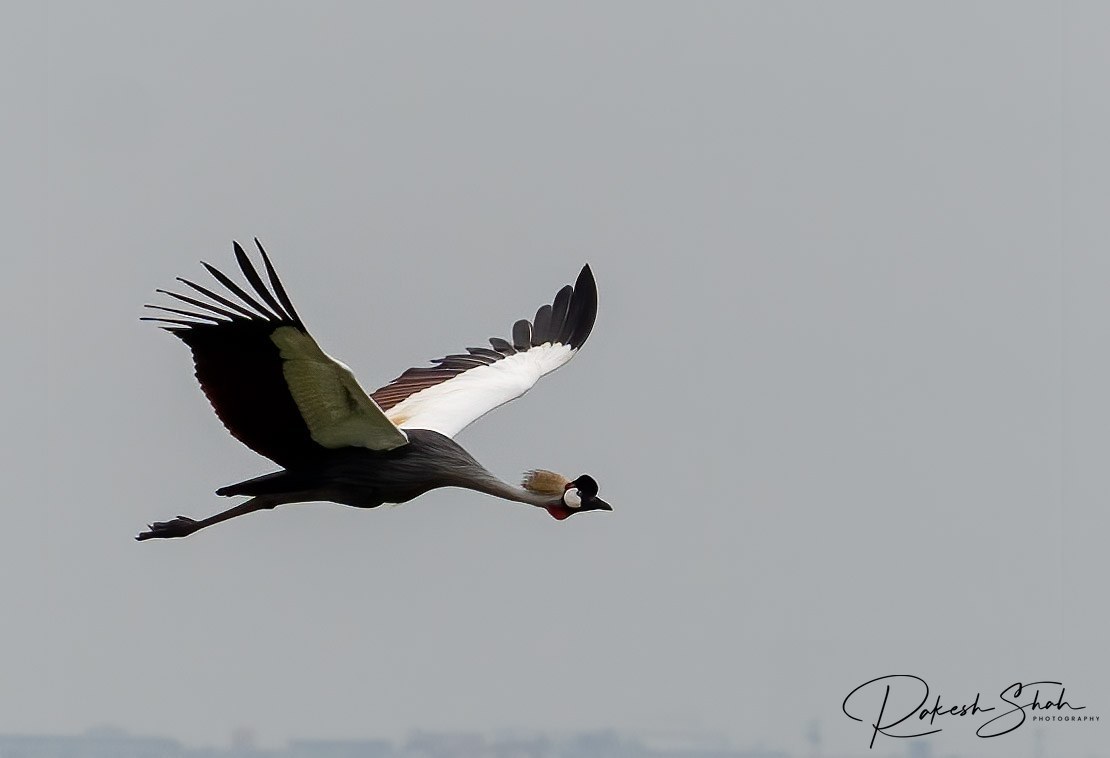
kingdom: Animalia
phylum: Chordata
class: Aves
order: Gruiformes
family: Gruidae
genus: Balearica
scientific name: Balearica regulorum
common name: Grey crowned crane
